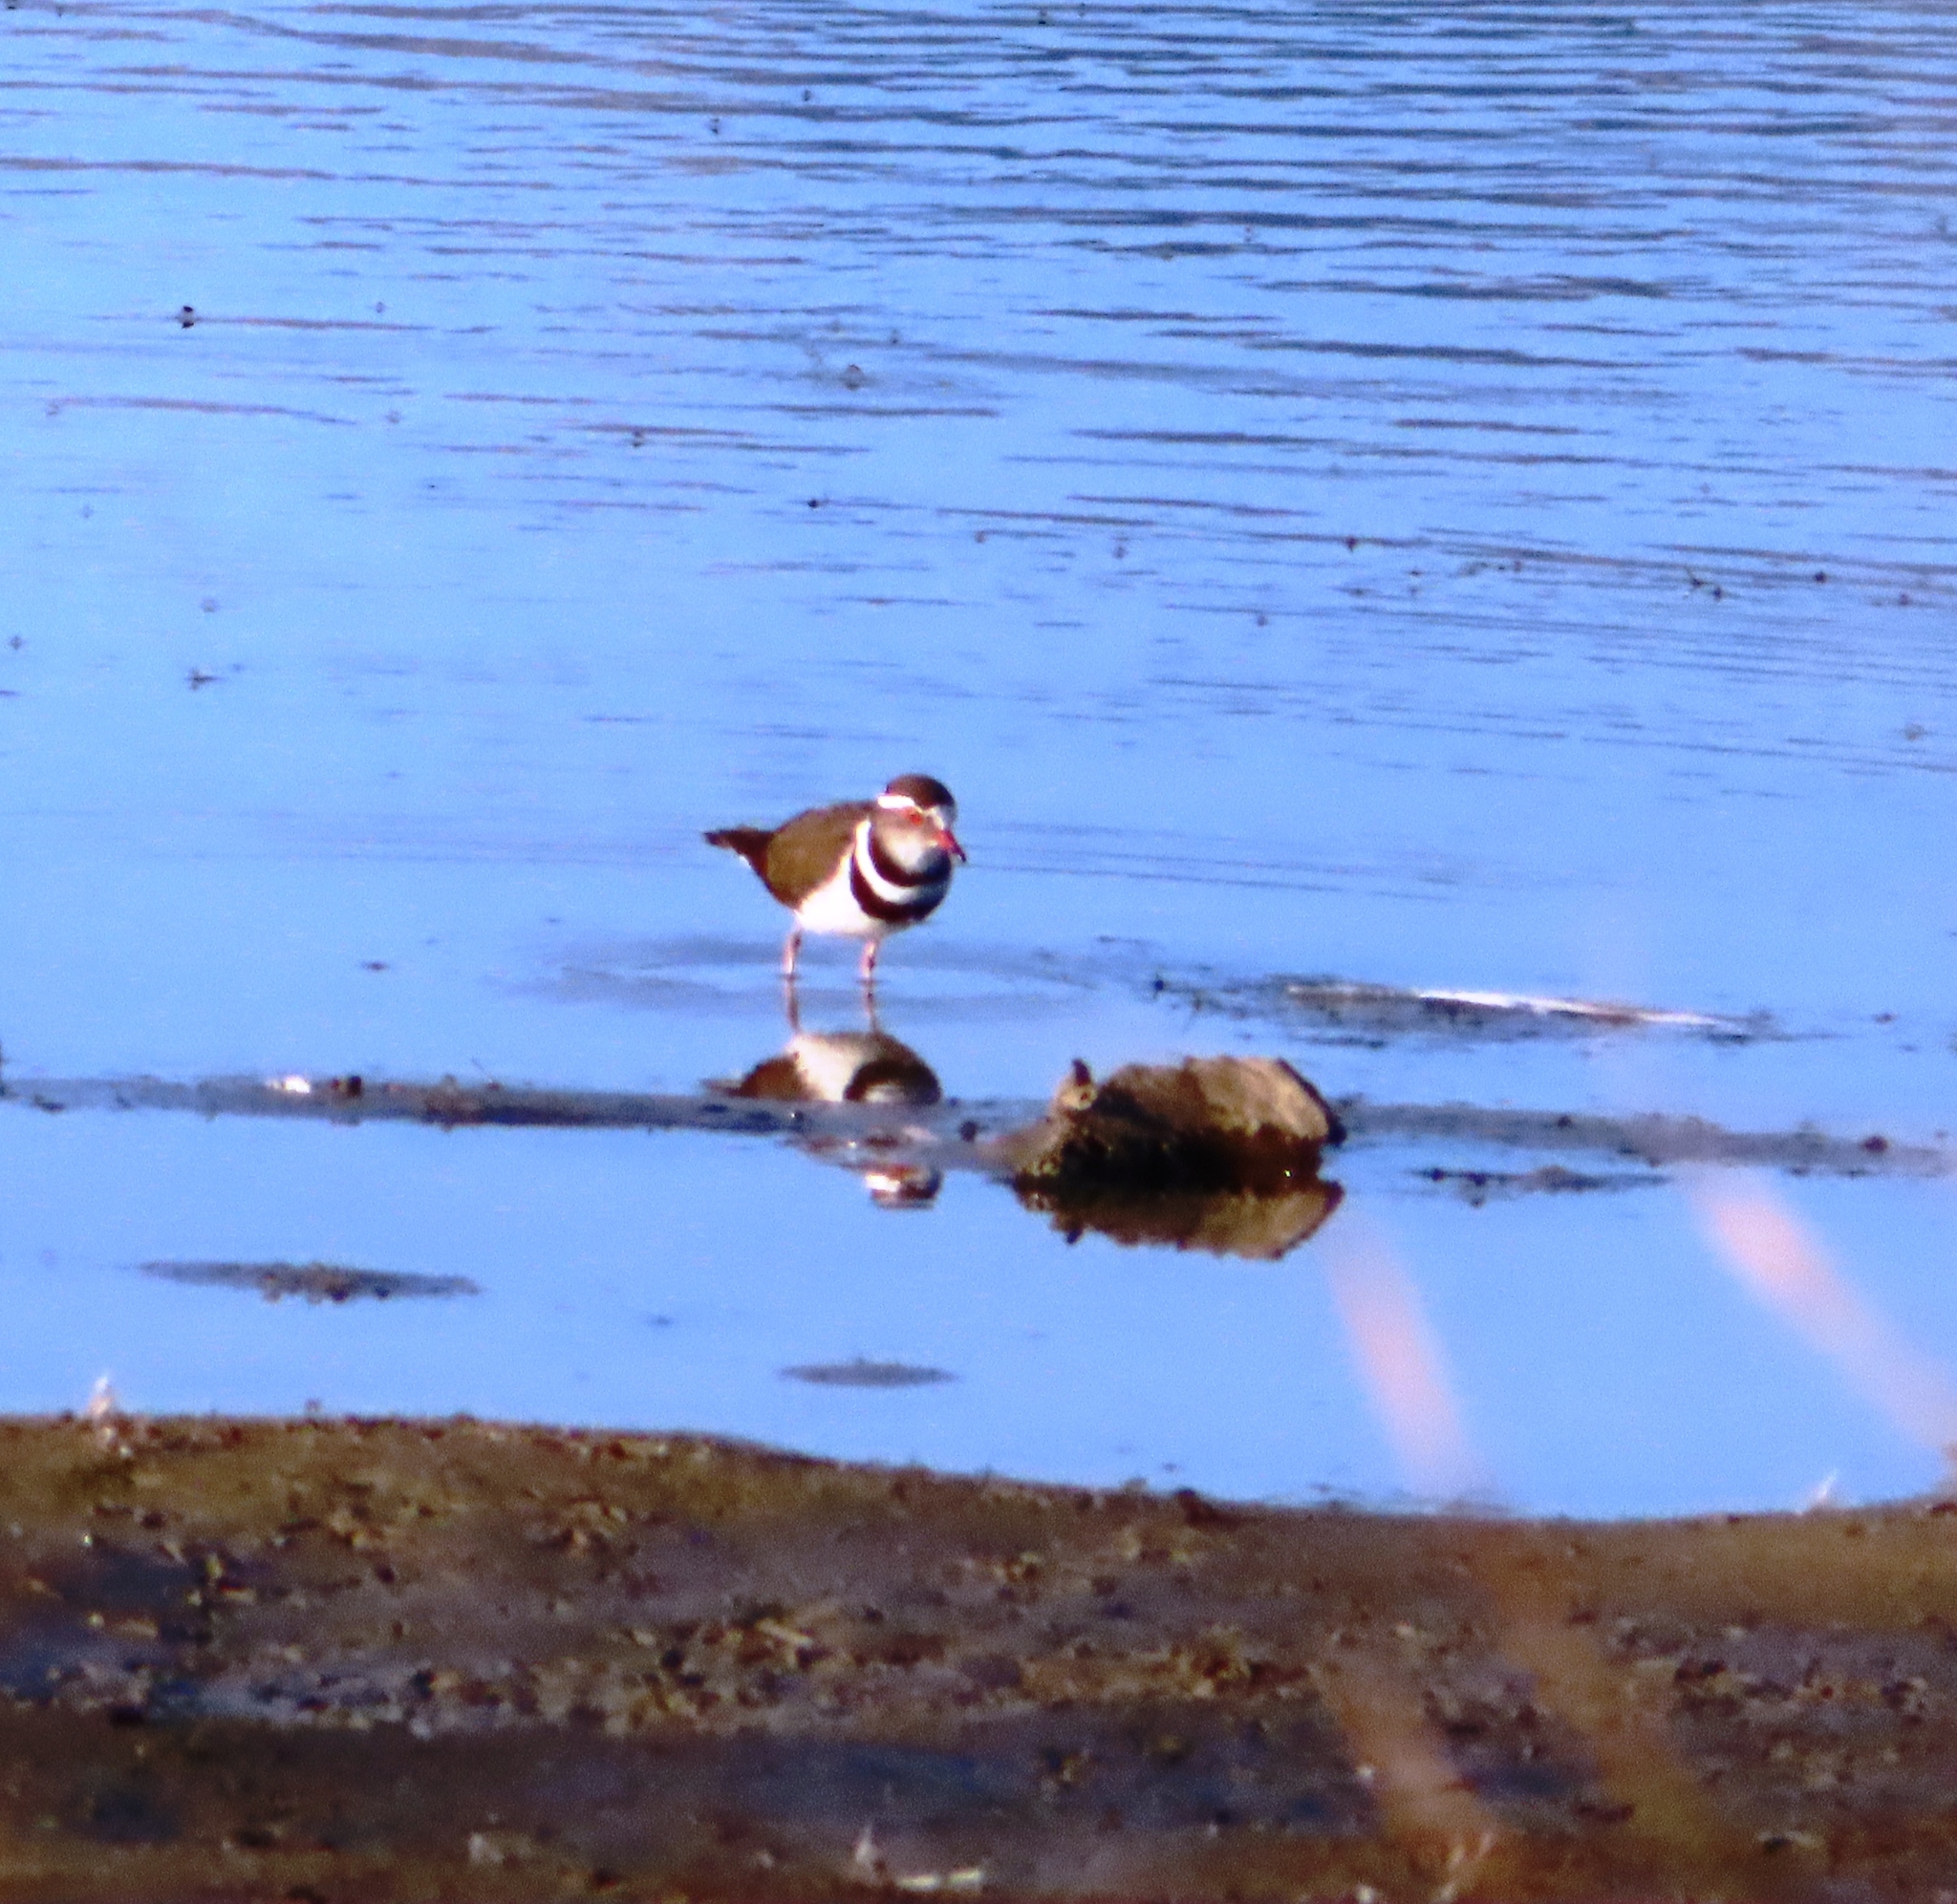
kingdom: Animalia
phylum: Chordata
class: Aves
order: Charadriiformes
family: Charadriidae
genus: Charadrius
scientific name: Charadrius tricollaris
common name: Three-banded plover
